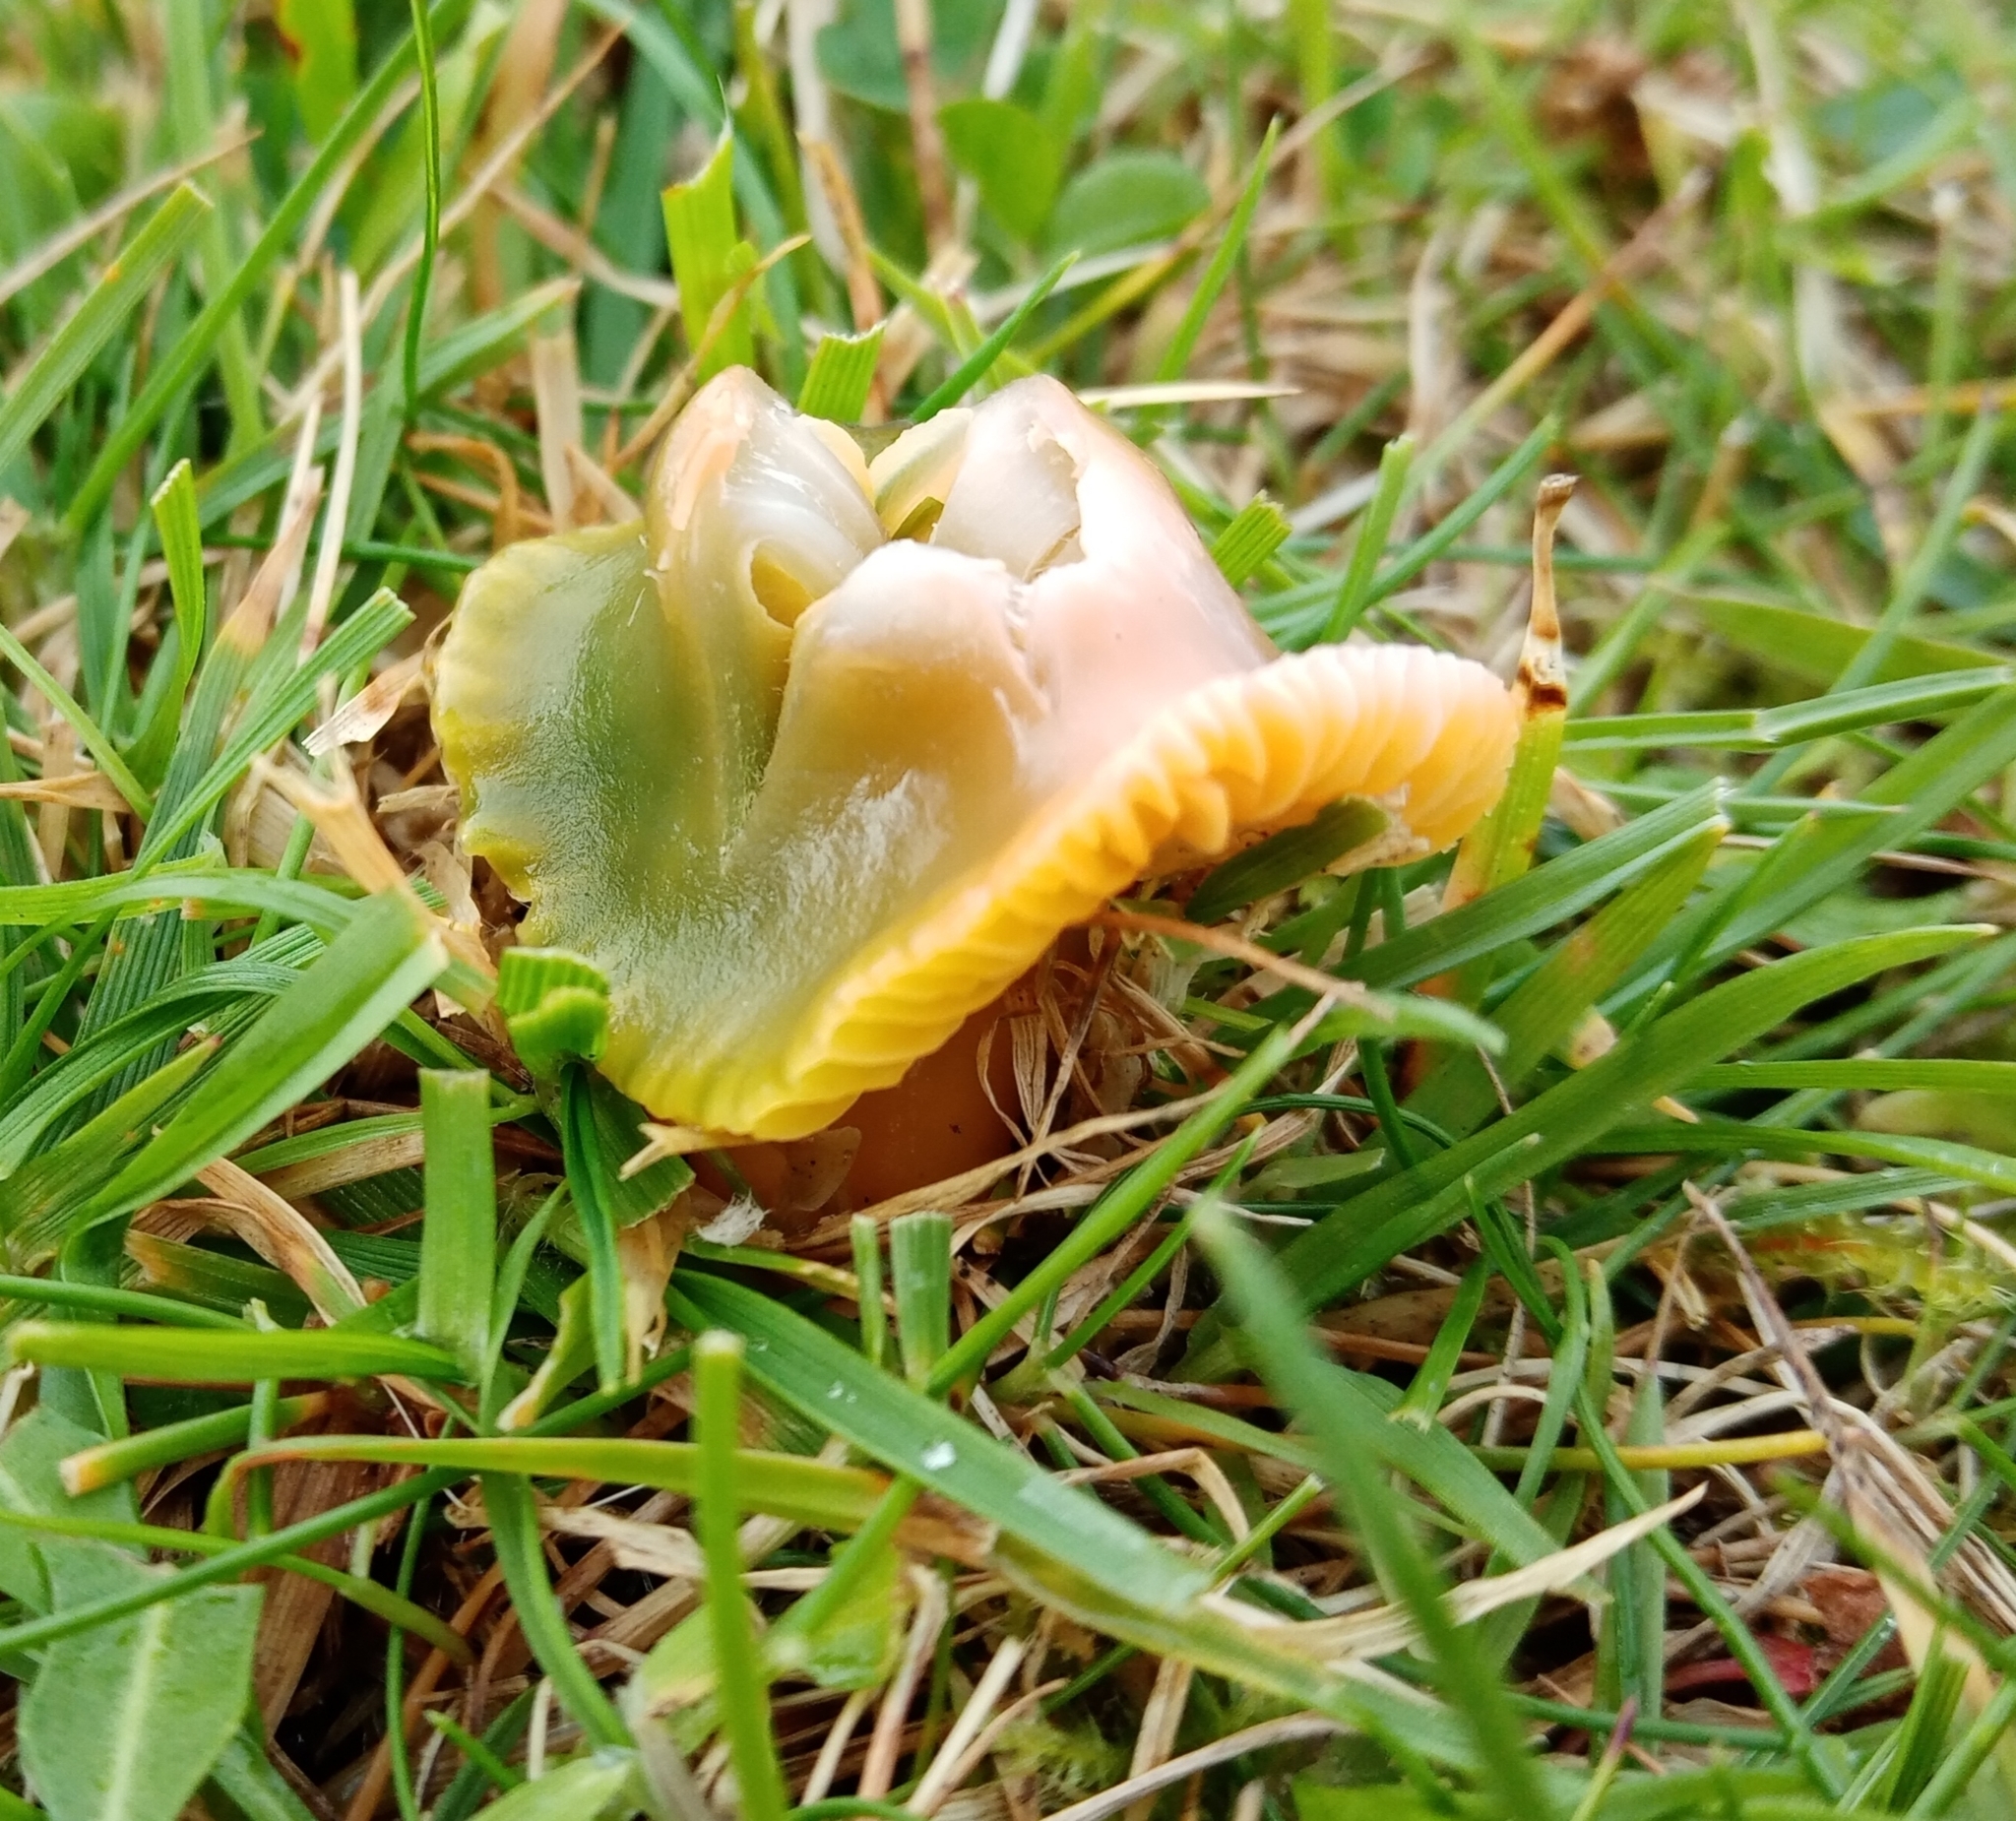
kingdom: Fungi
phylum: Basidiomycota
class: Agaricomycetes
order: Agaricales
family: Hygrophoraceae
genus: Gliophorus
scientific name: Gliophorus psittacinus
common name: Parrot wax-cap
